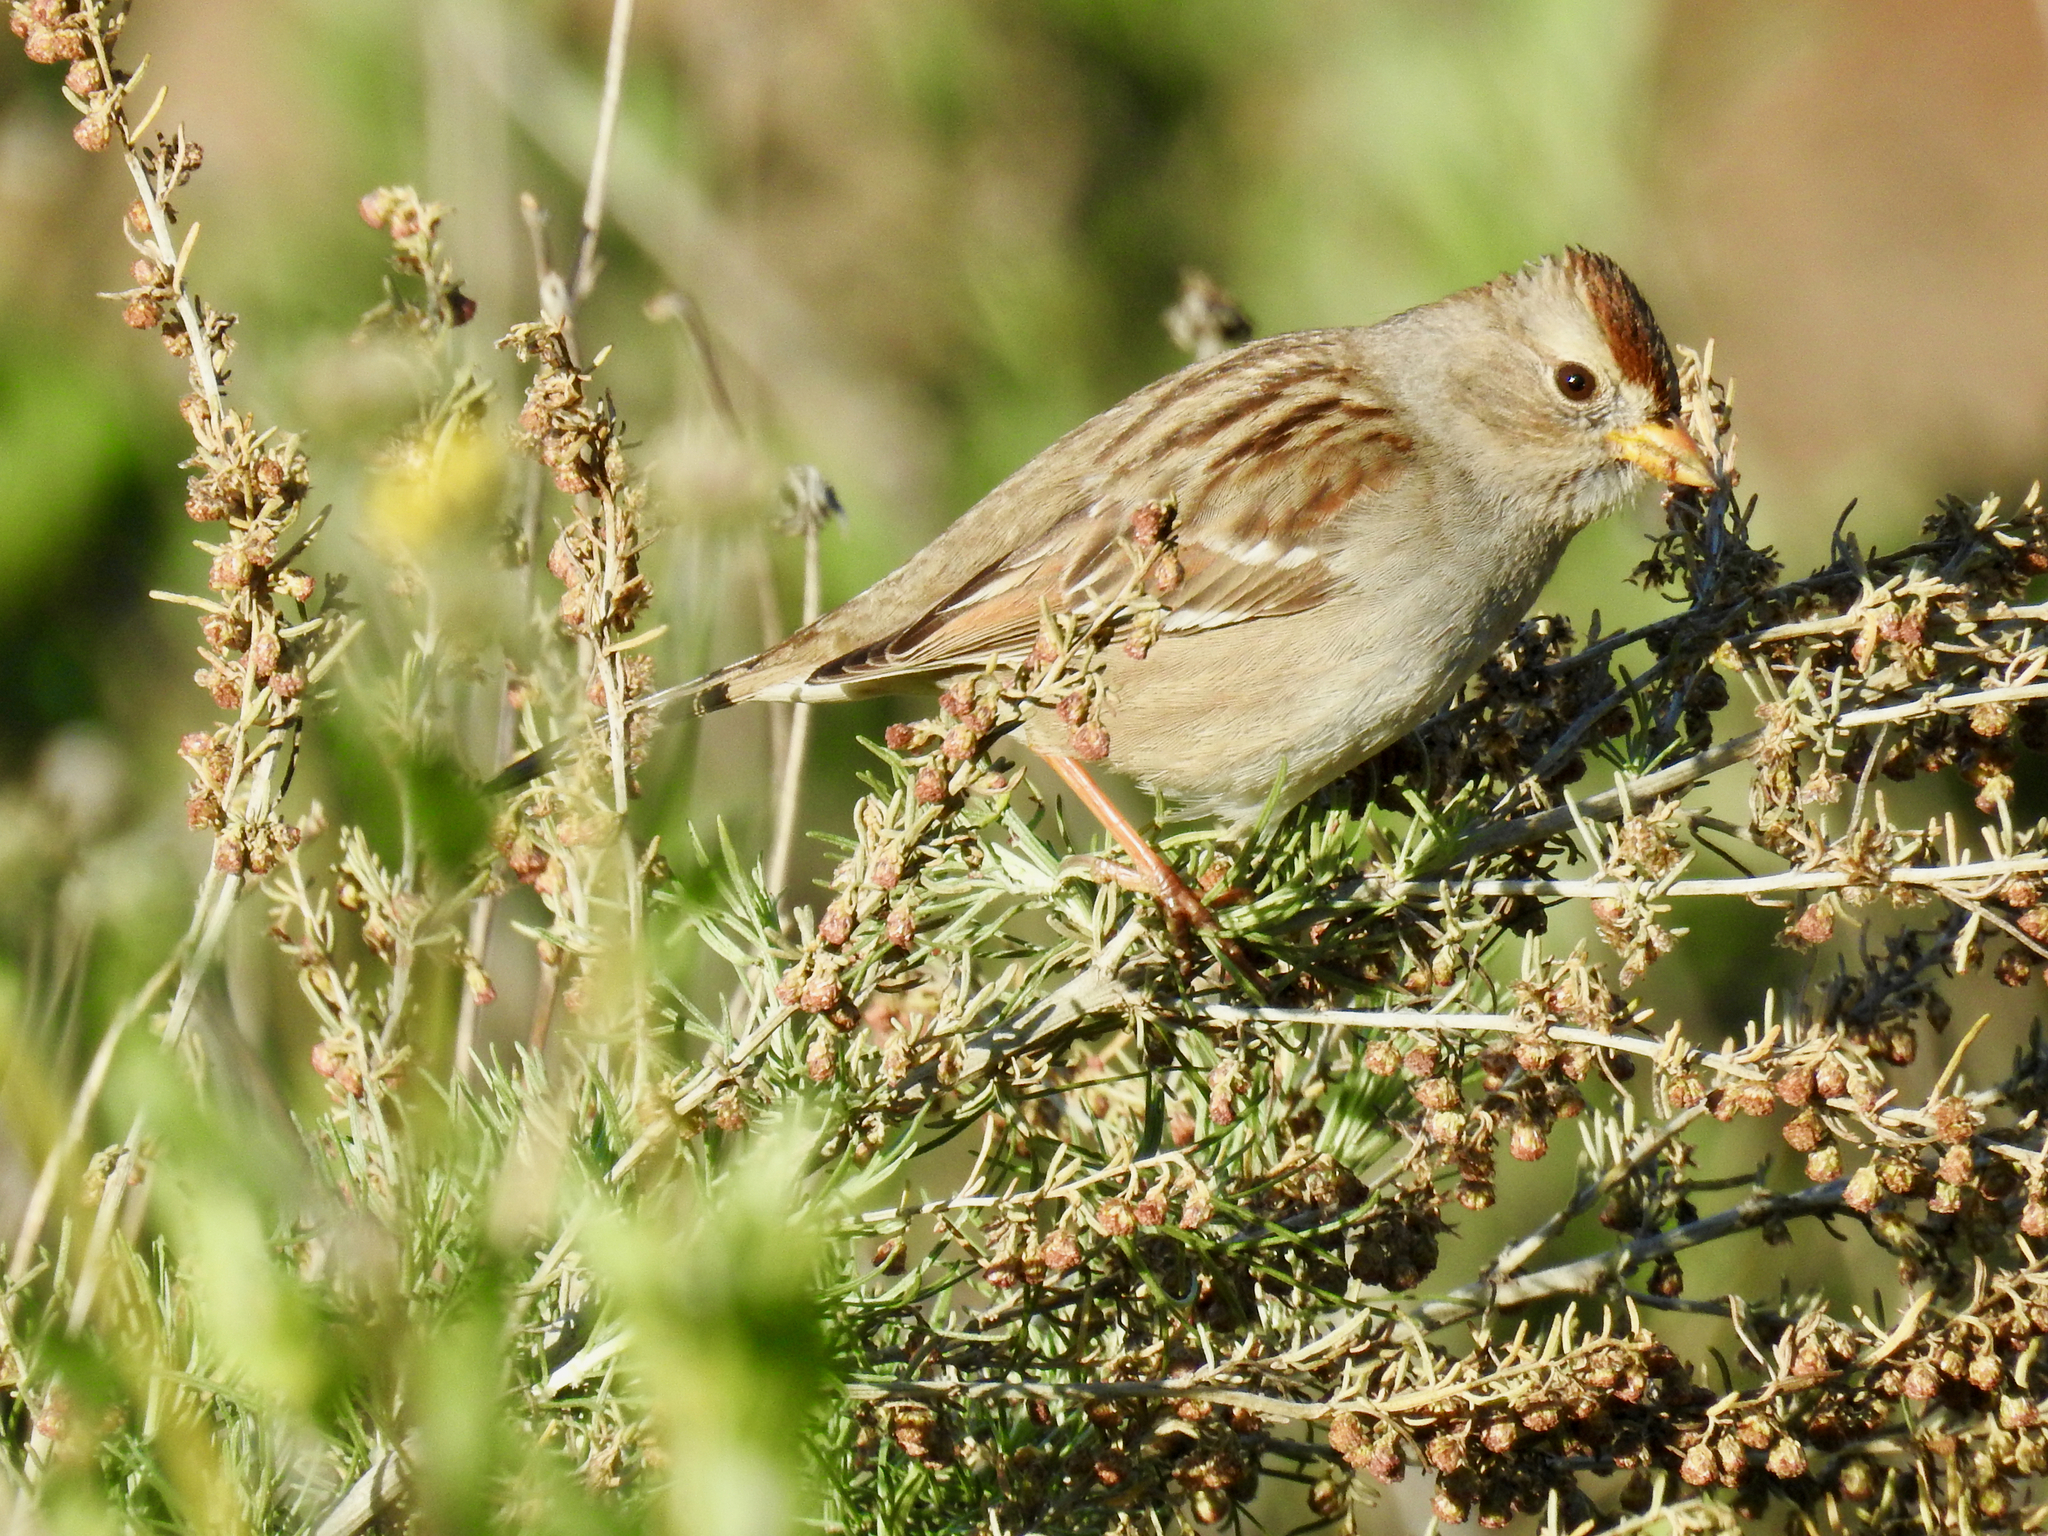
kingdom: Animalia
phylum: Chordata
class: Aves
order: Passeriformes
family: Passerellidae
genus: Zonotrichia
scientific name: Zonotrichia leucophrys
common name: White-crowned sparrow
